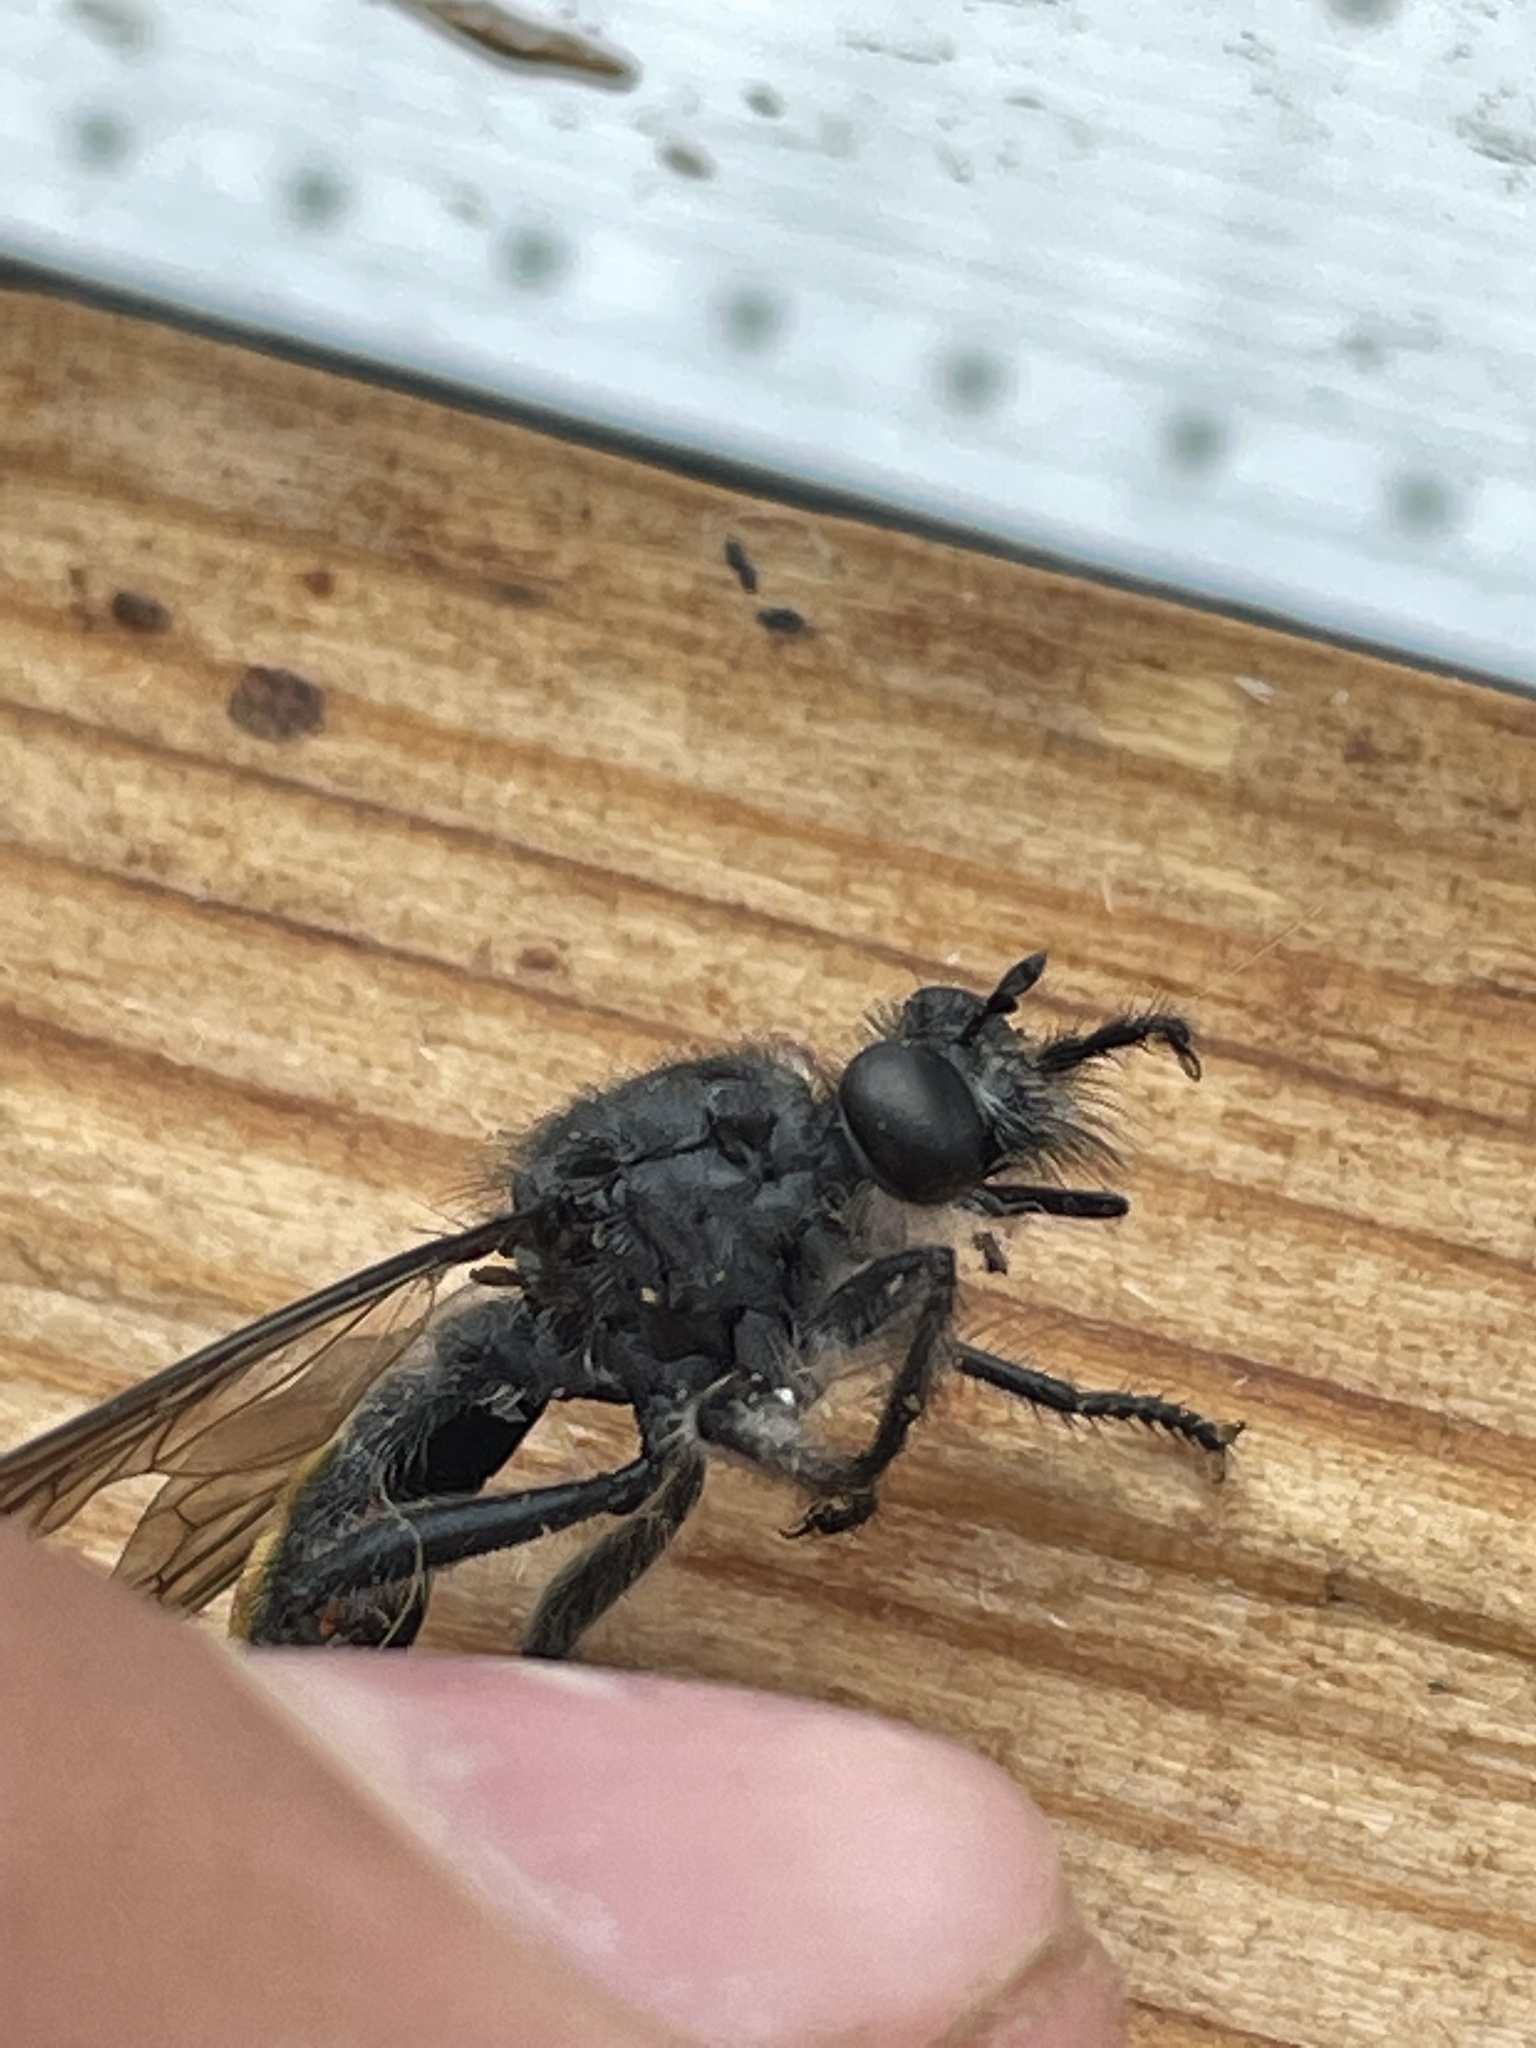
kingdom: Animalia
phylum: Arthropoda
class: Insecta
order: Diptera
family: Asilidae
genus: Laphria
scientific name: Laphria gilva
